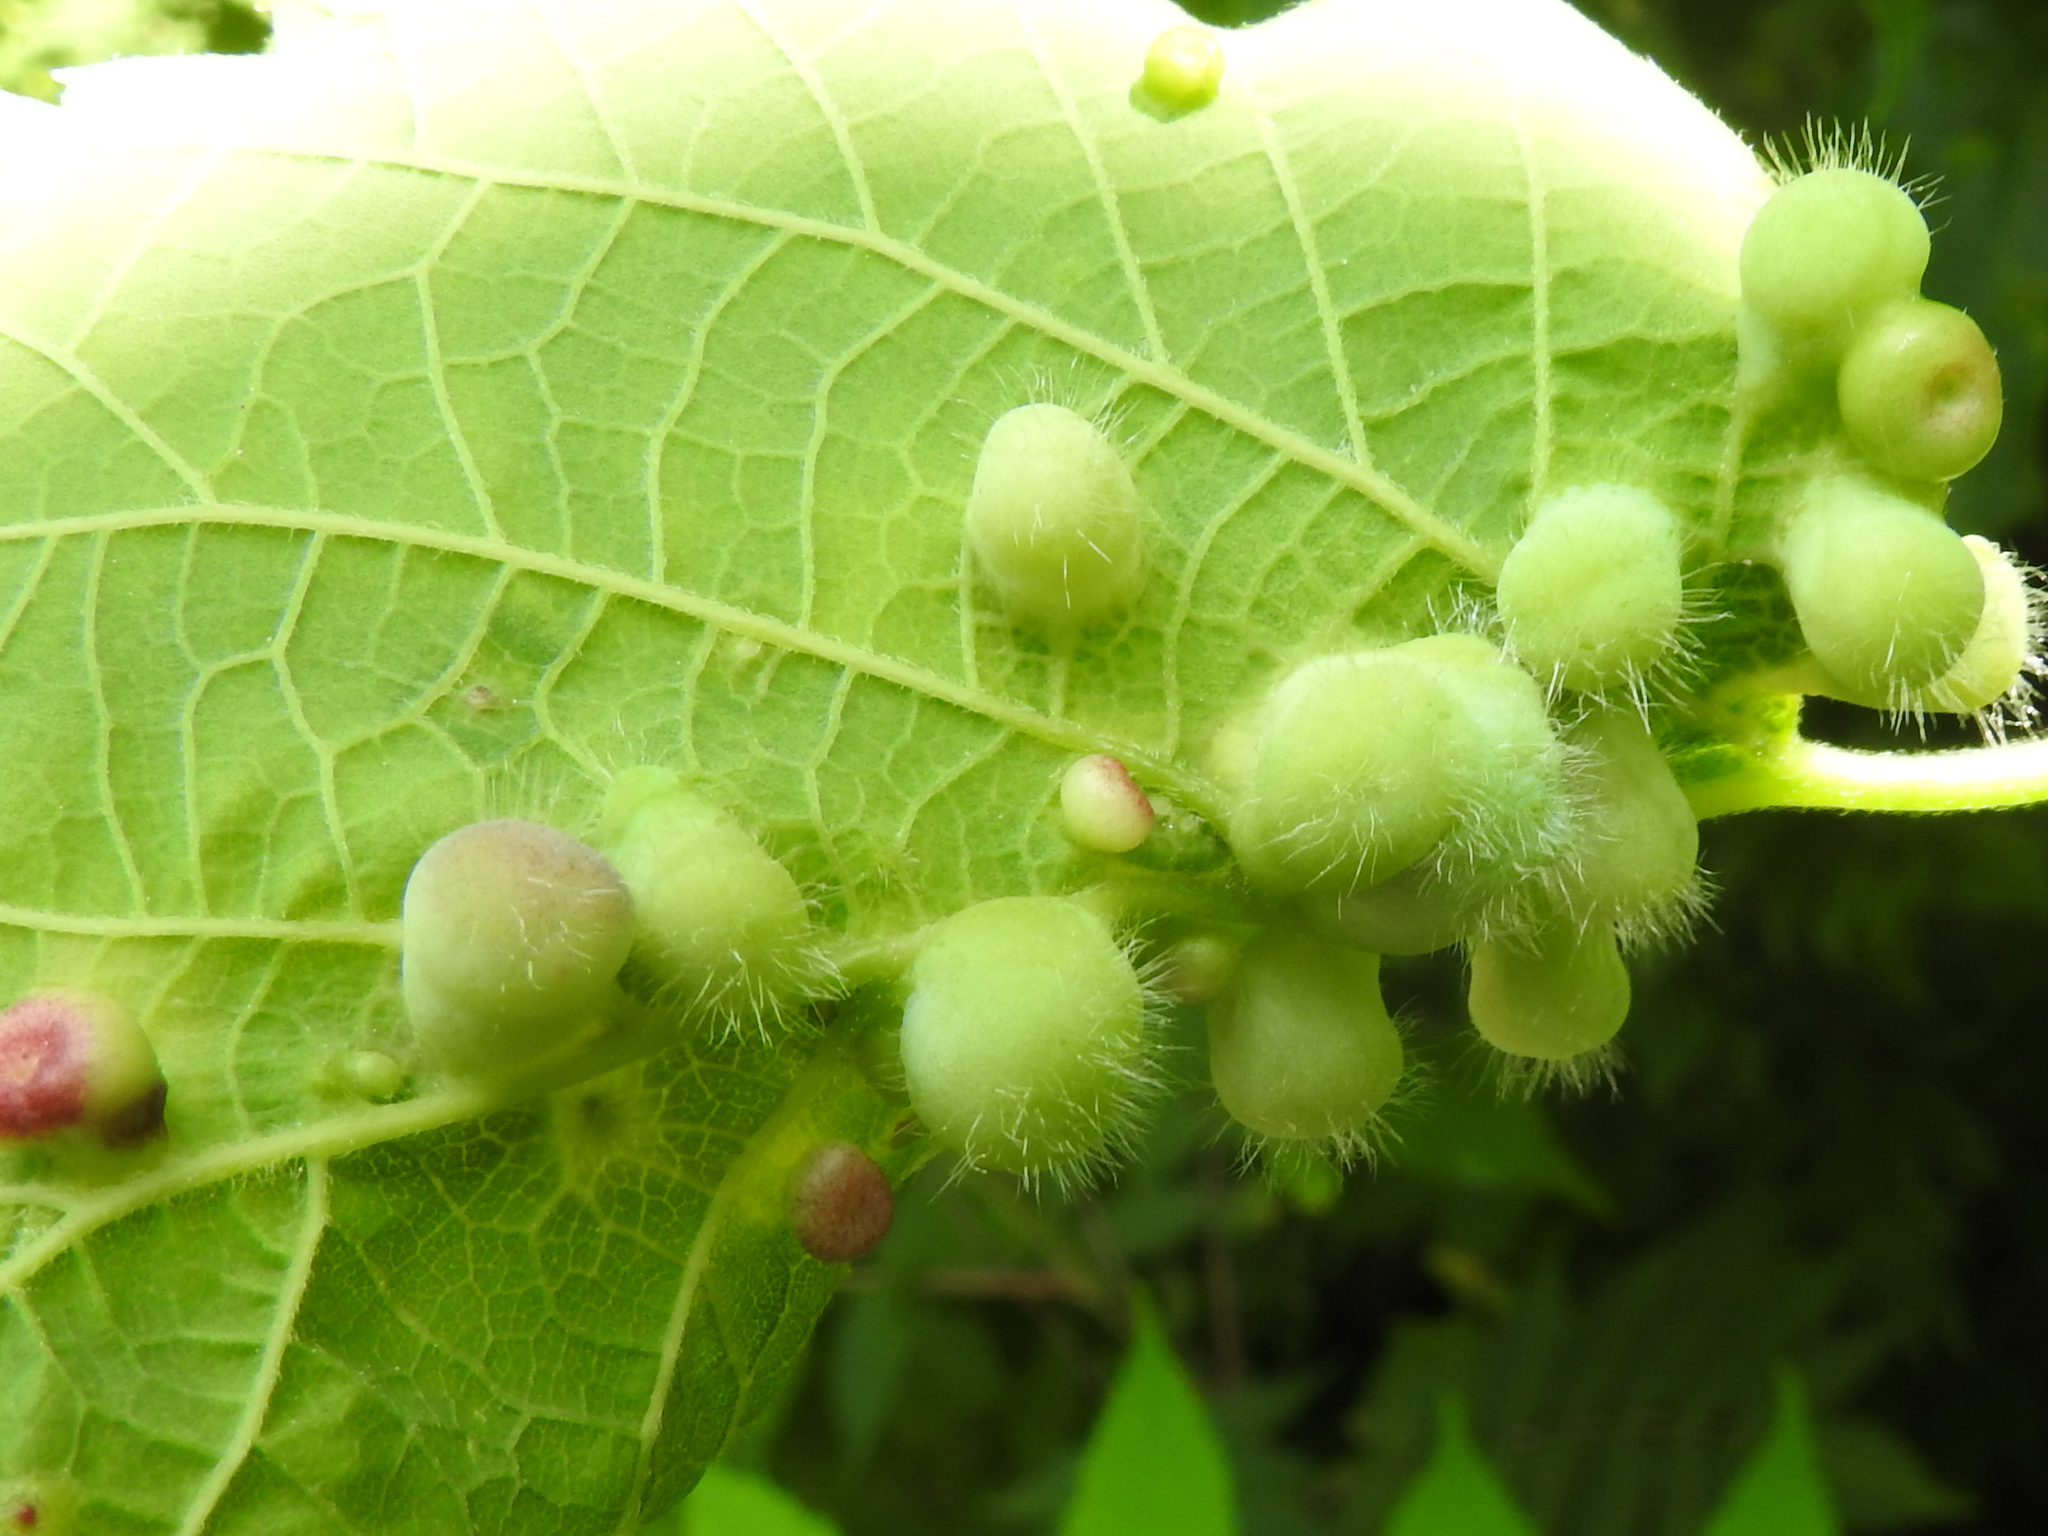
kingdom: Animalia
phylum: Arthropoda
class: Insecta
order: Hemiptera
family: Aphalaridae
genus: Pachypsylla
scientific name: Pachypsylla celtidismamma
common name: Hackberry nipplegall psyllid
